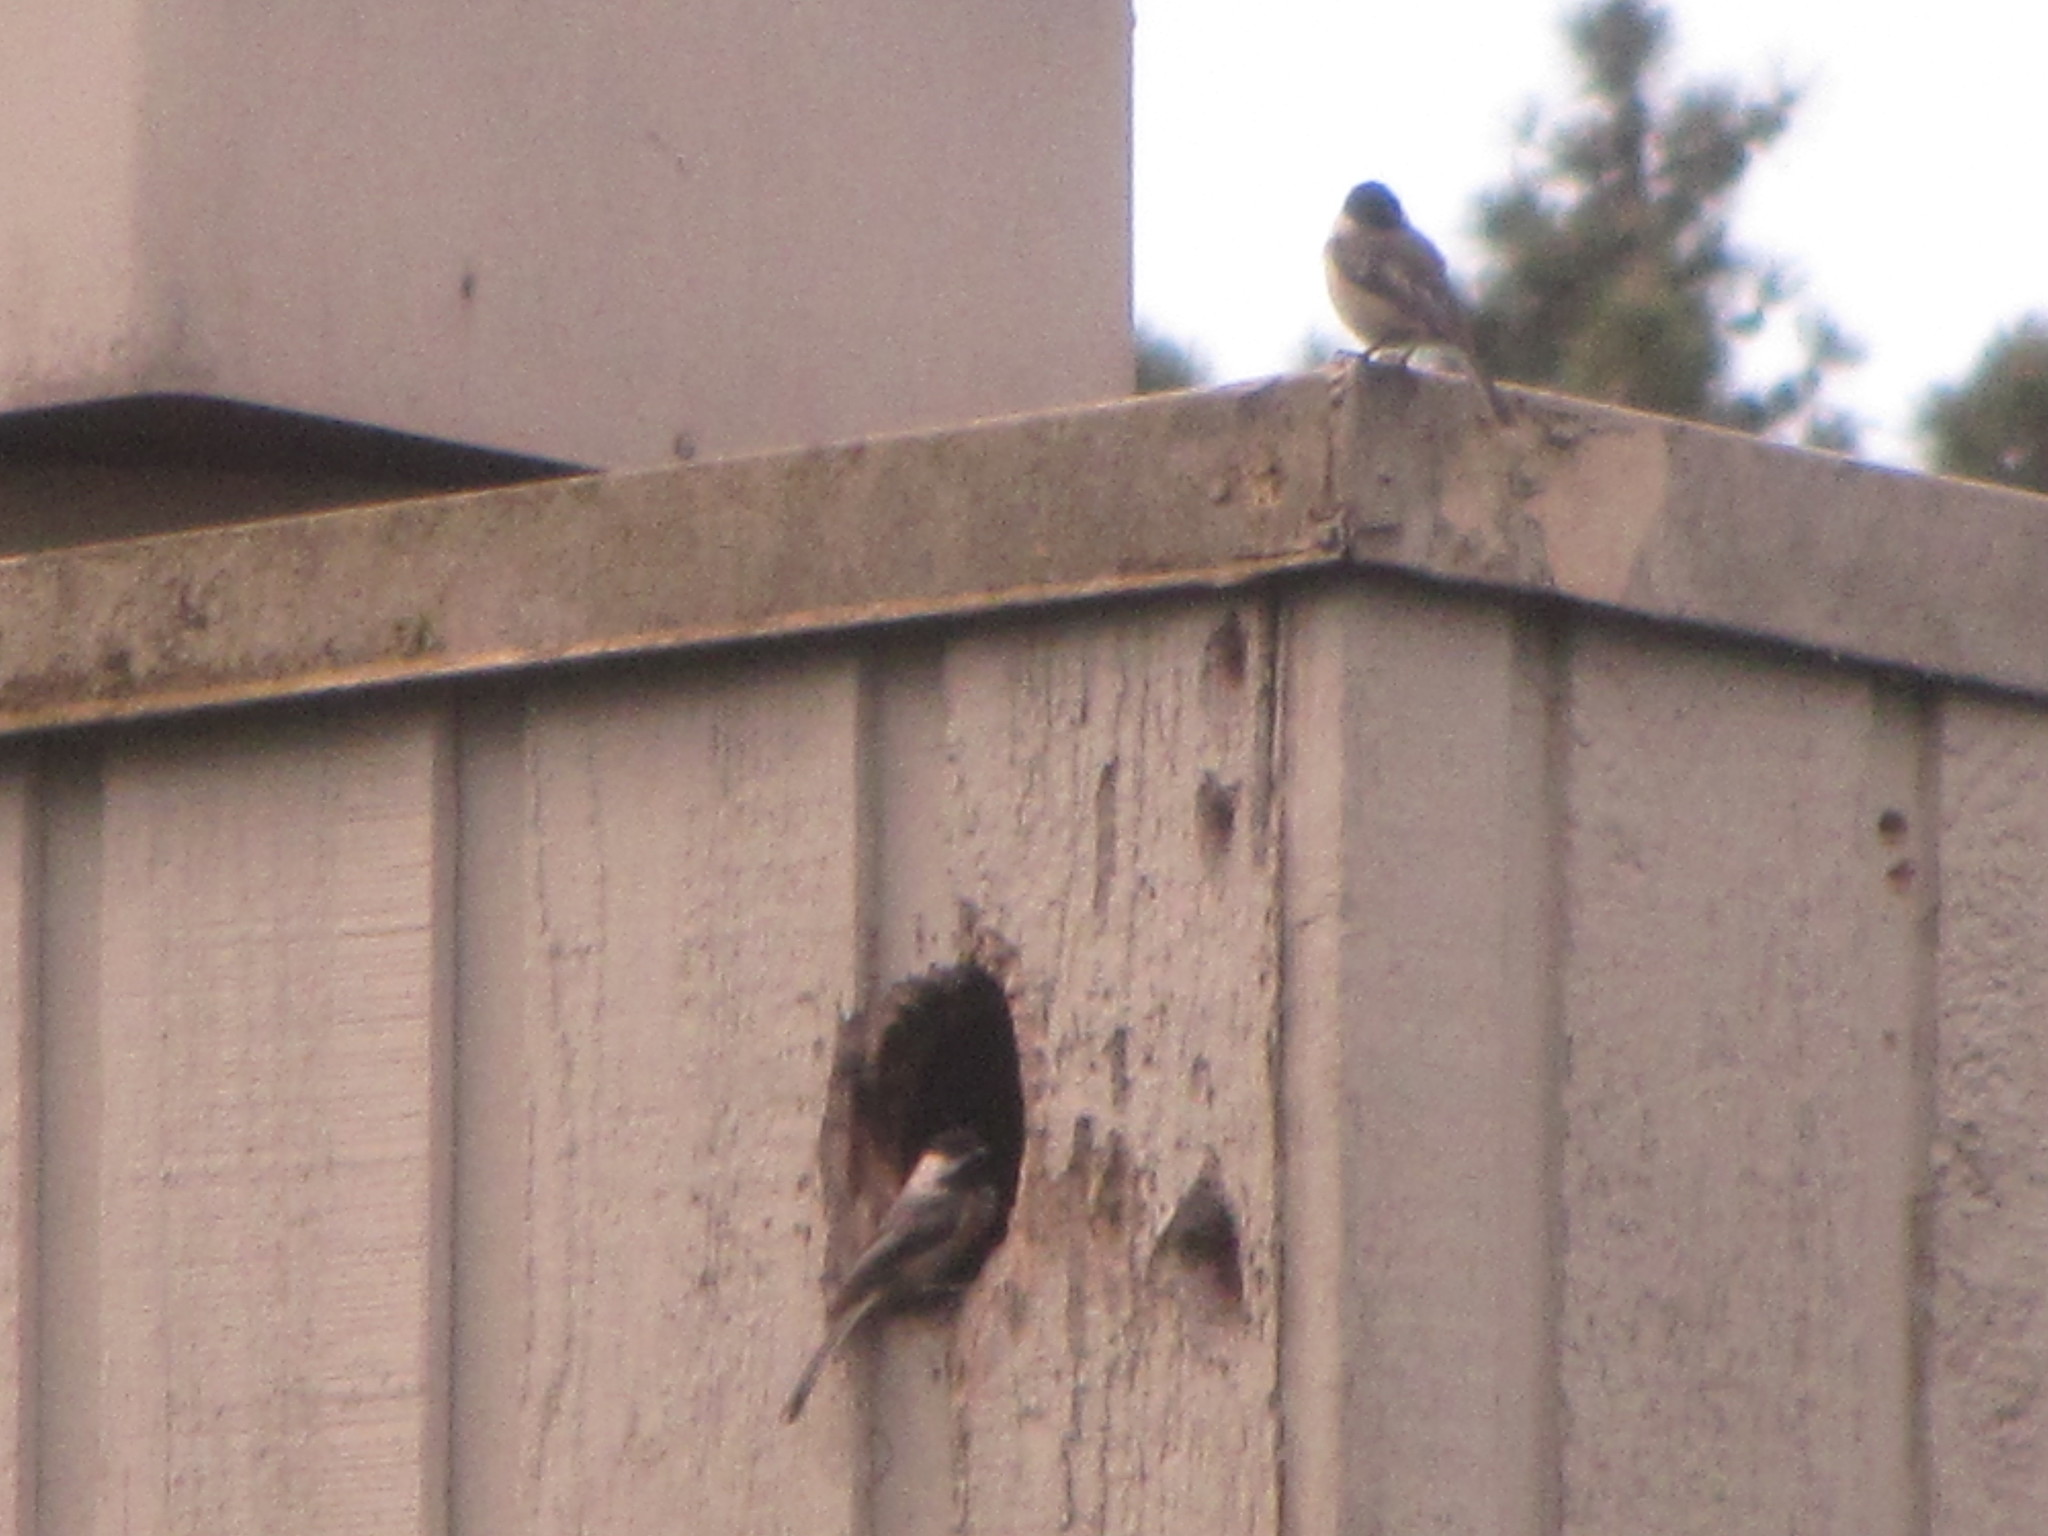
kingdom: Animalia
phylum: Chordata
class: Aves
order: Passeriformes
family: Paridae
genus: Poecile
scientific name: Poecile atricapillus
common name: Black-capped chickadee
